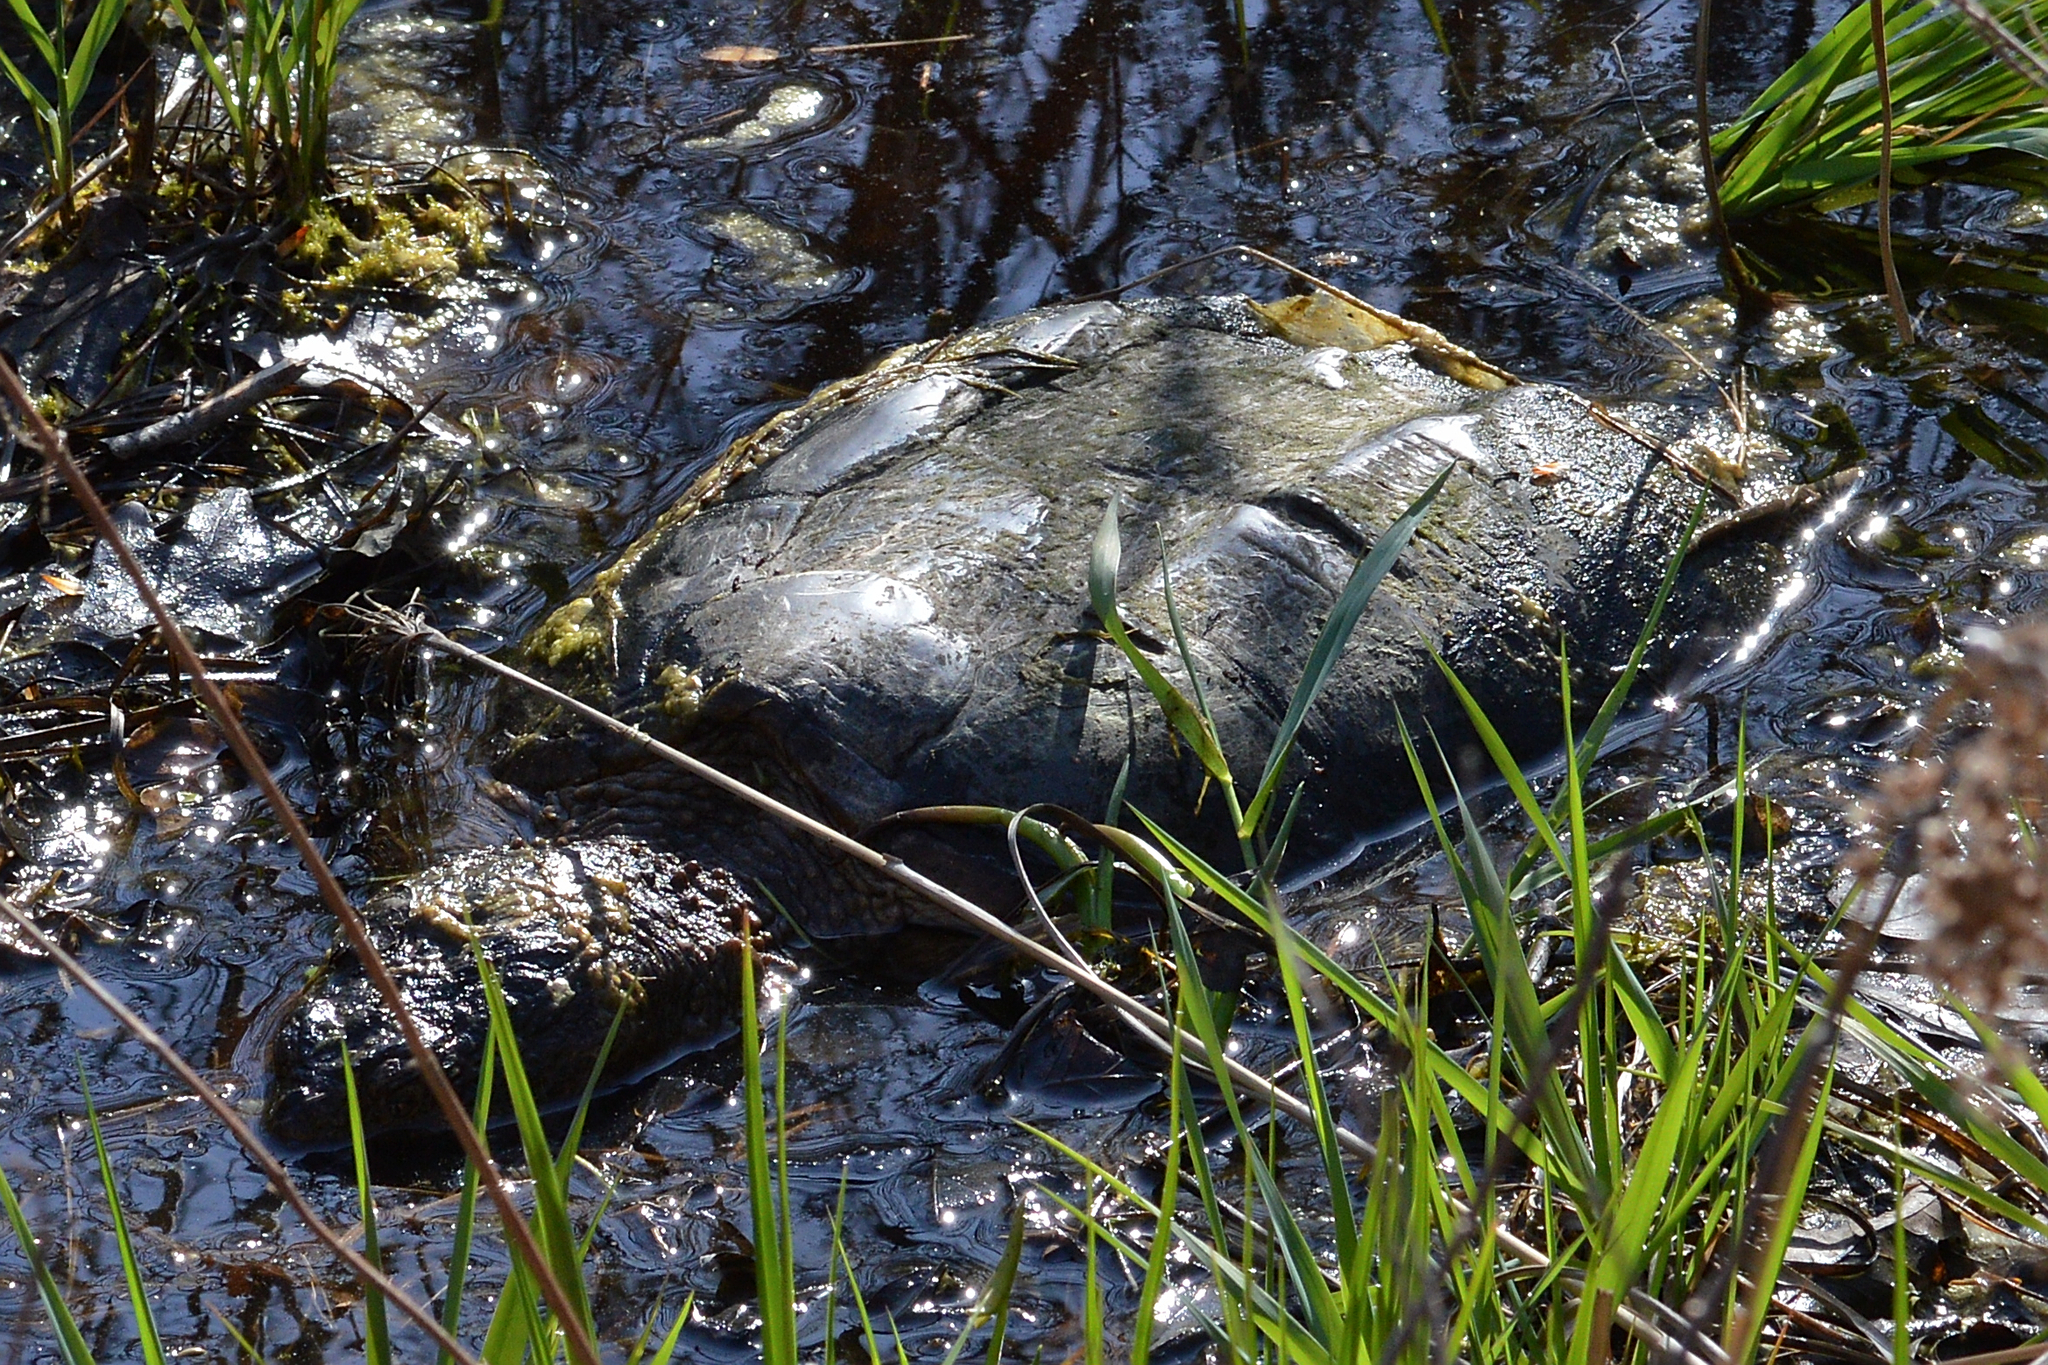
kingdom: Animalia
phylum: Chordata
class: Testudines
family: Chelydridae
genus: Chelydra
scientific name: Chelydra serpentina
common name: Common snapping turtle
